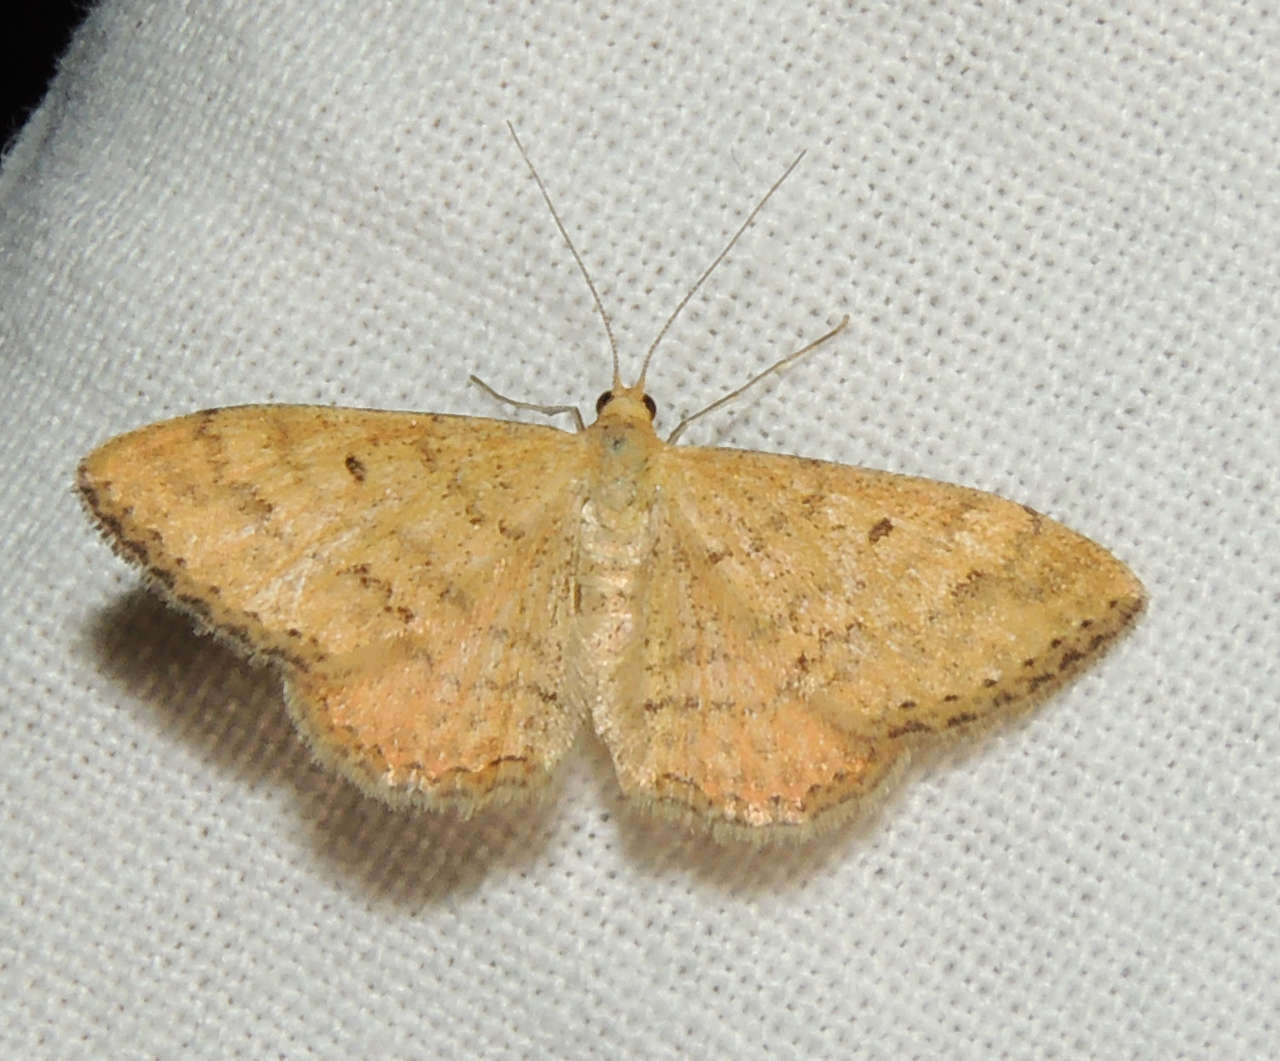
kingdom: Animalia
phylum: Arthropoda
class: Insecta
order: Lepidoptera
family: Geometridae
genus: Scopula
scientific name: Scopula rubraria
